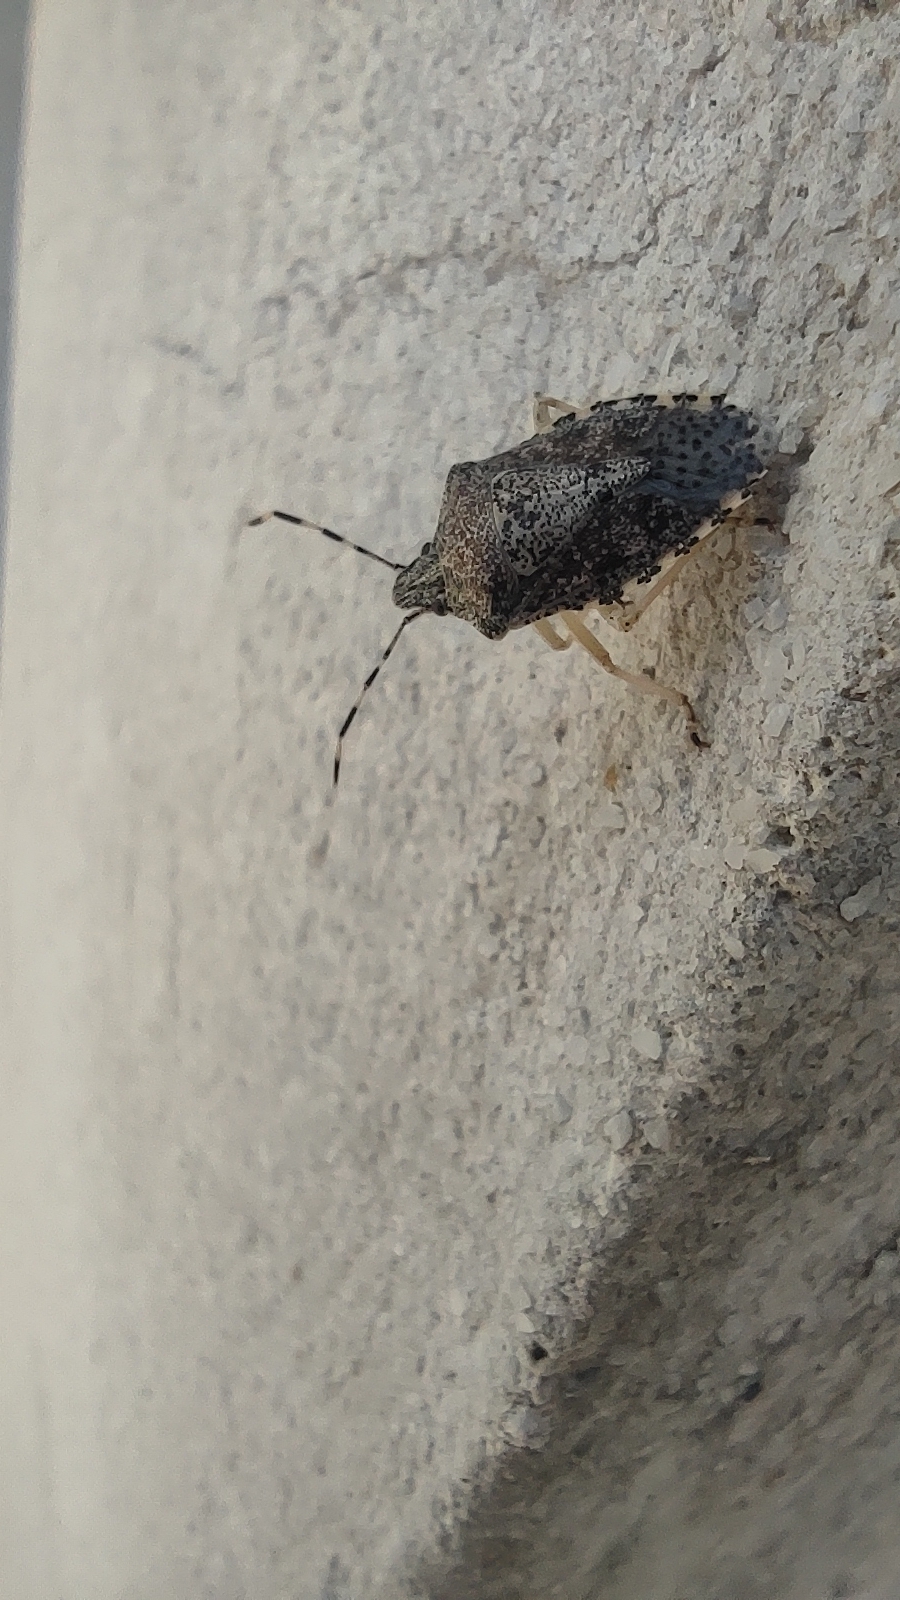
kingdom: Animalia
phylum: Arthropoda
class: Insecta
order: Hemiptera
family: Pentatomidae
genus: Rhaphigaster
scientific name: Rhaphigaster nebulosa
